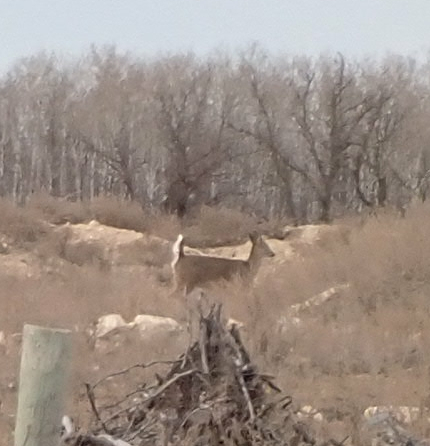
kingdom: Animalia
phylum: Chordata
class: Mammalia
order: Artiodactyla
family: Cervidae
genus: Odocoileus
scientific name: Odocoileus virginianus
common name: White-tailed deer
